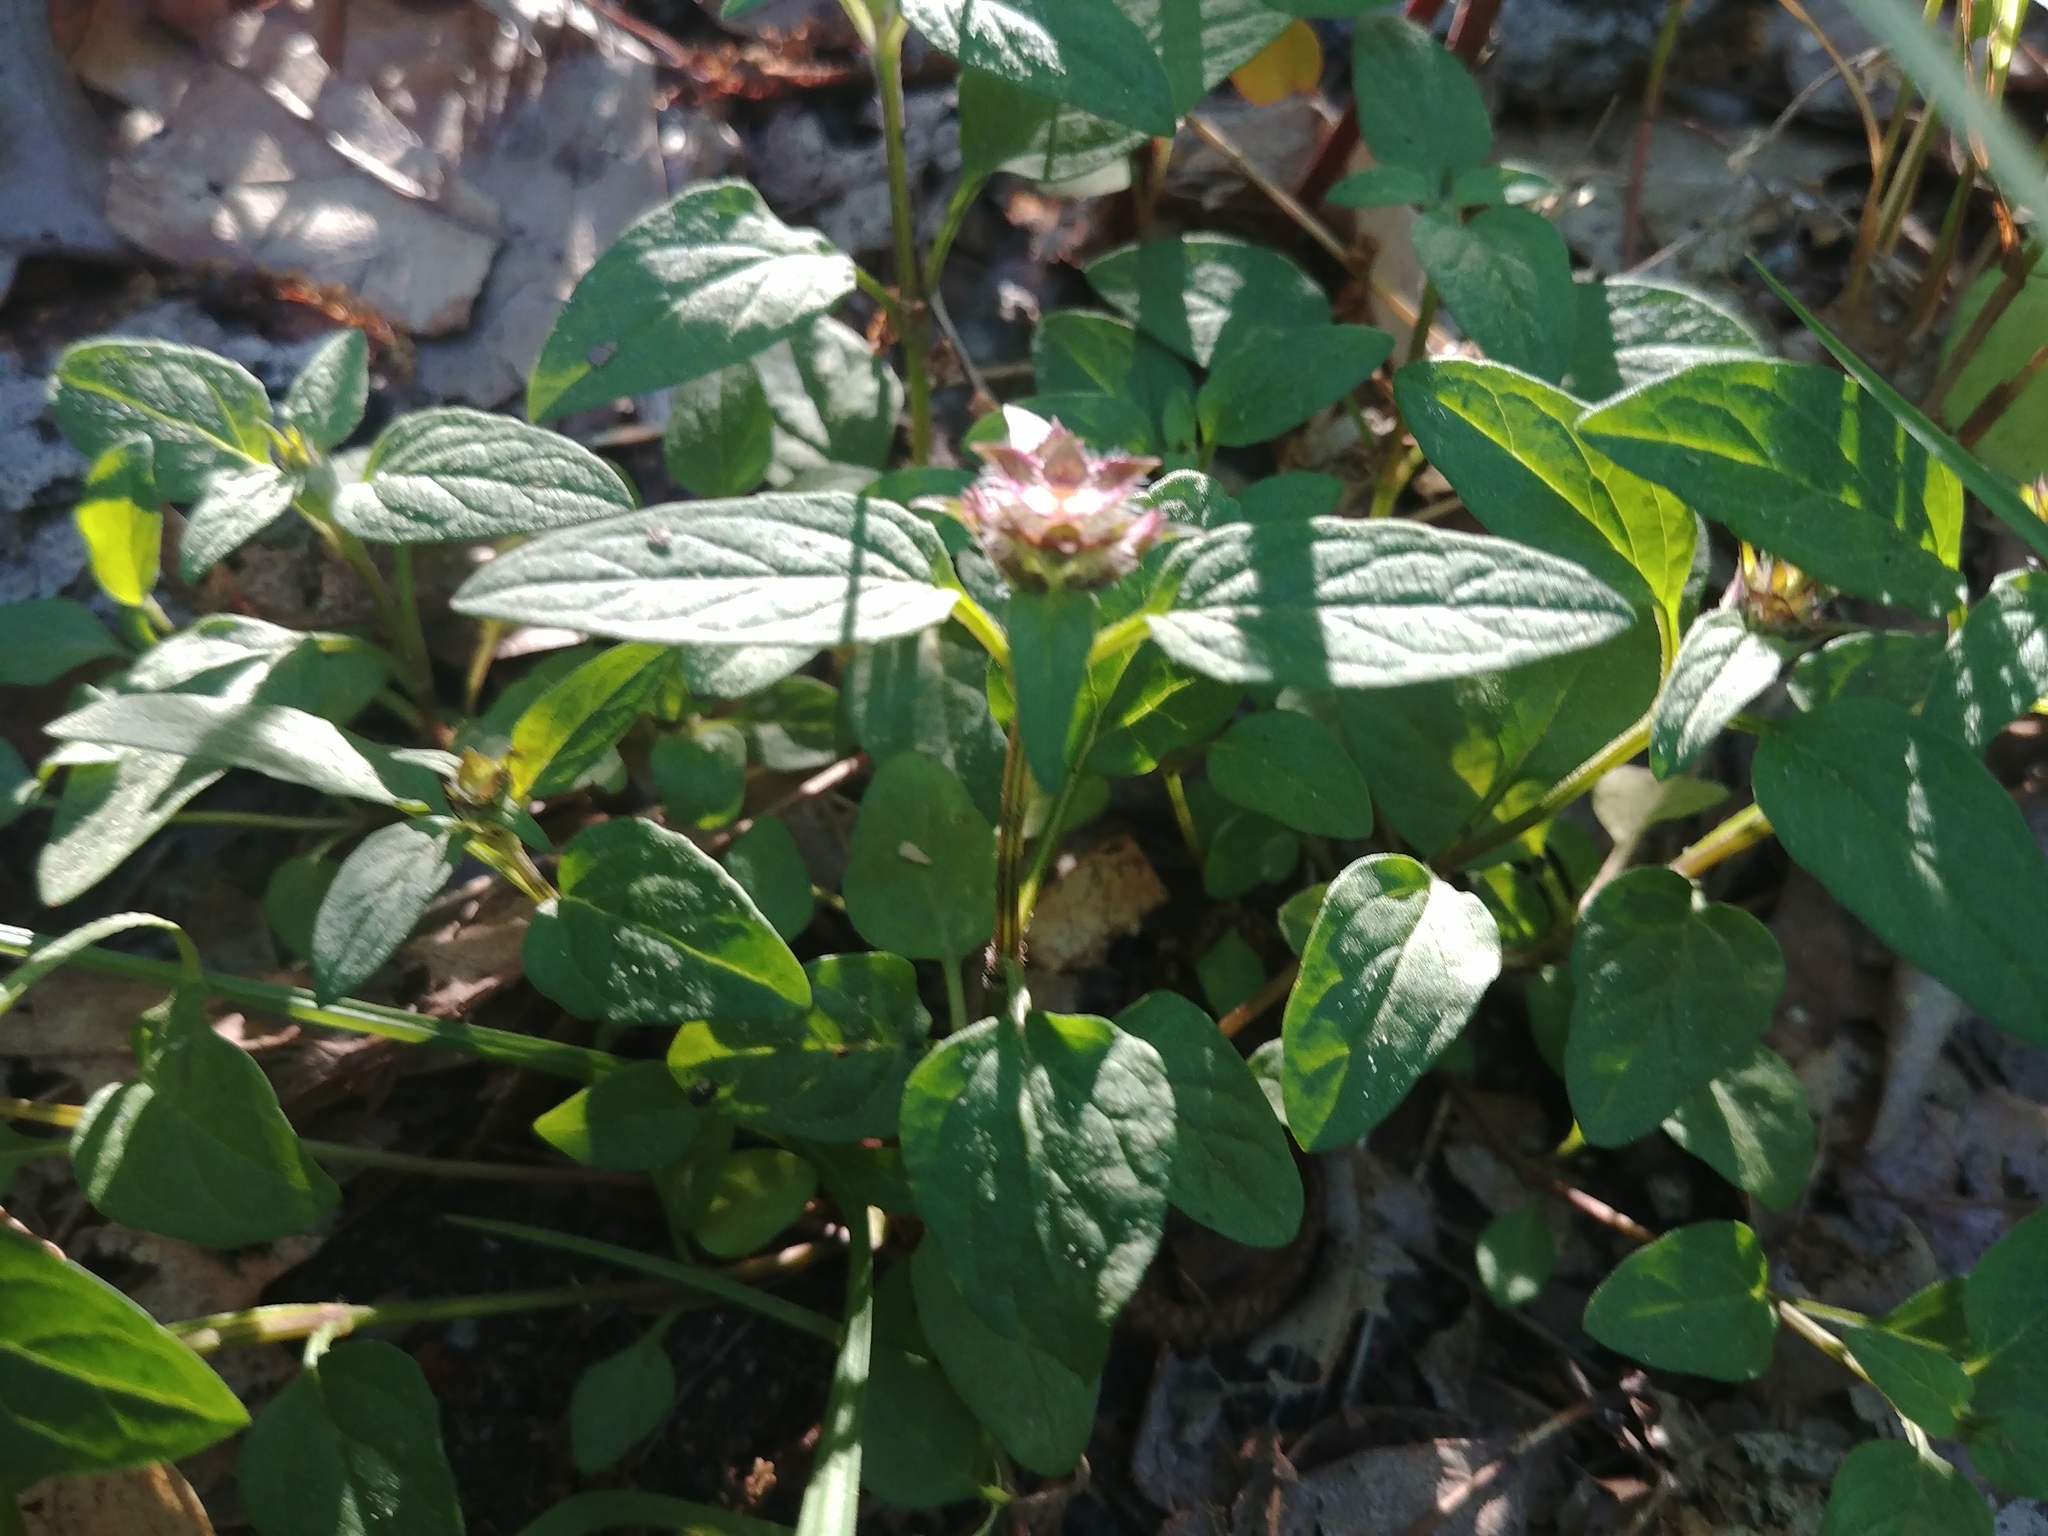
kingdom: Plantae
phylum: Tracheophyta
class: Magnoliopsida
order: Lamiales
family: Lamiaceae
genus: Prunella
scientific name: Prunella vulgaris
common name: Heal-all
